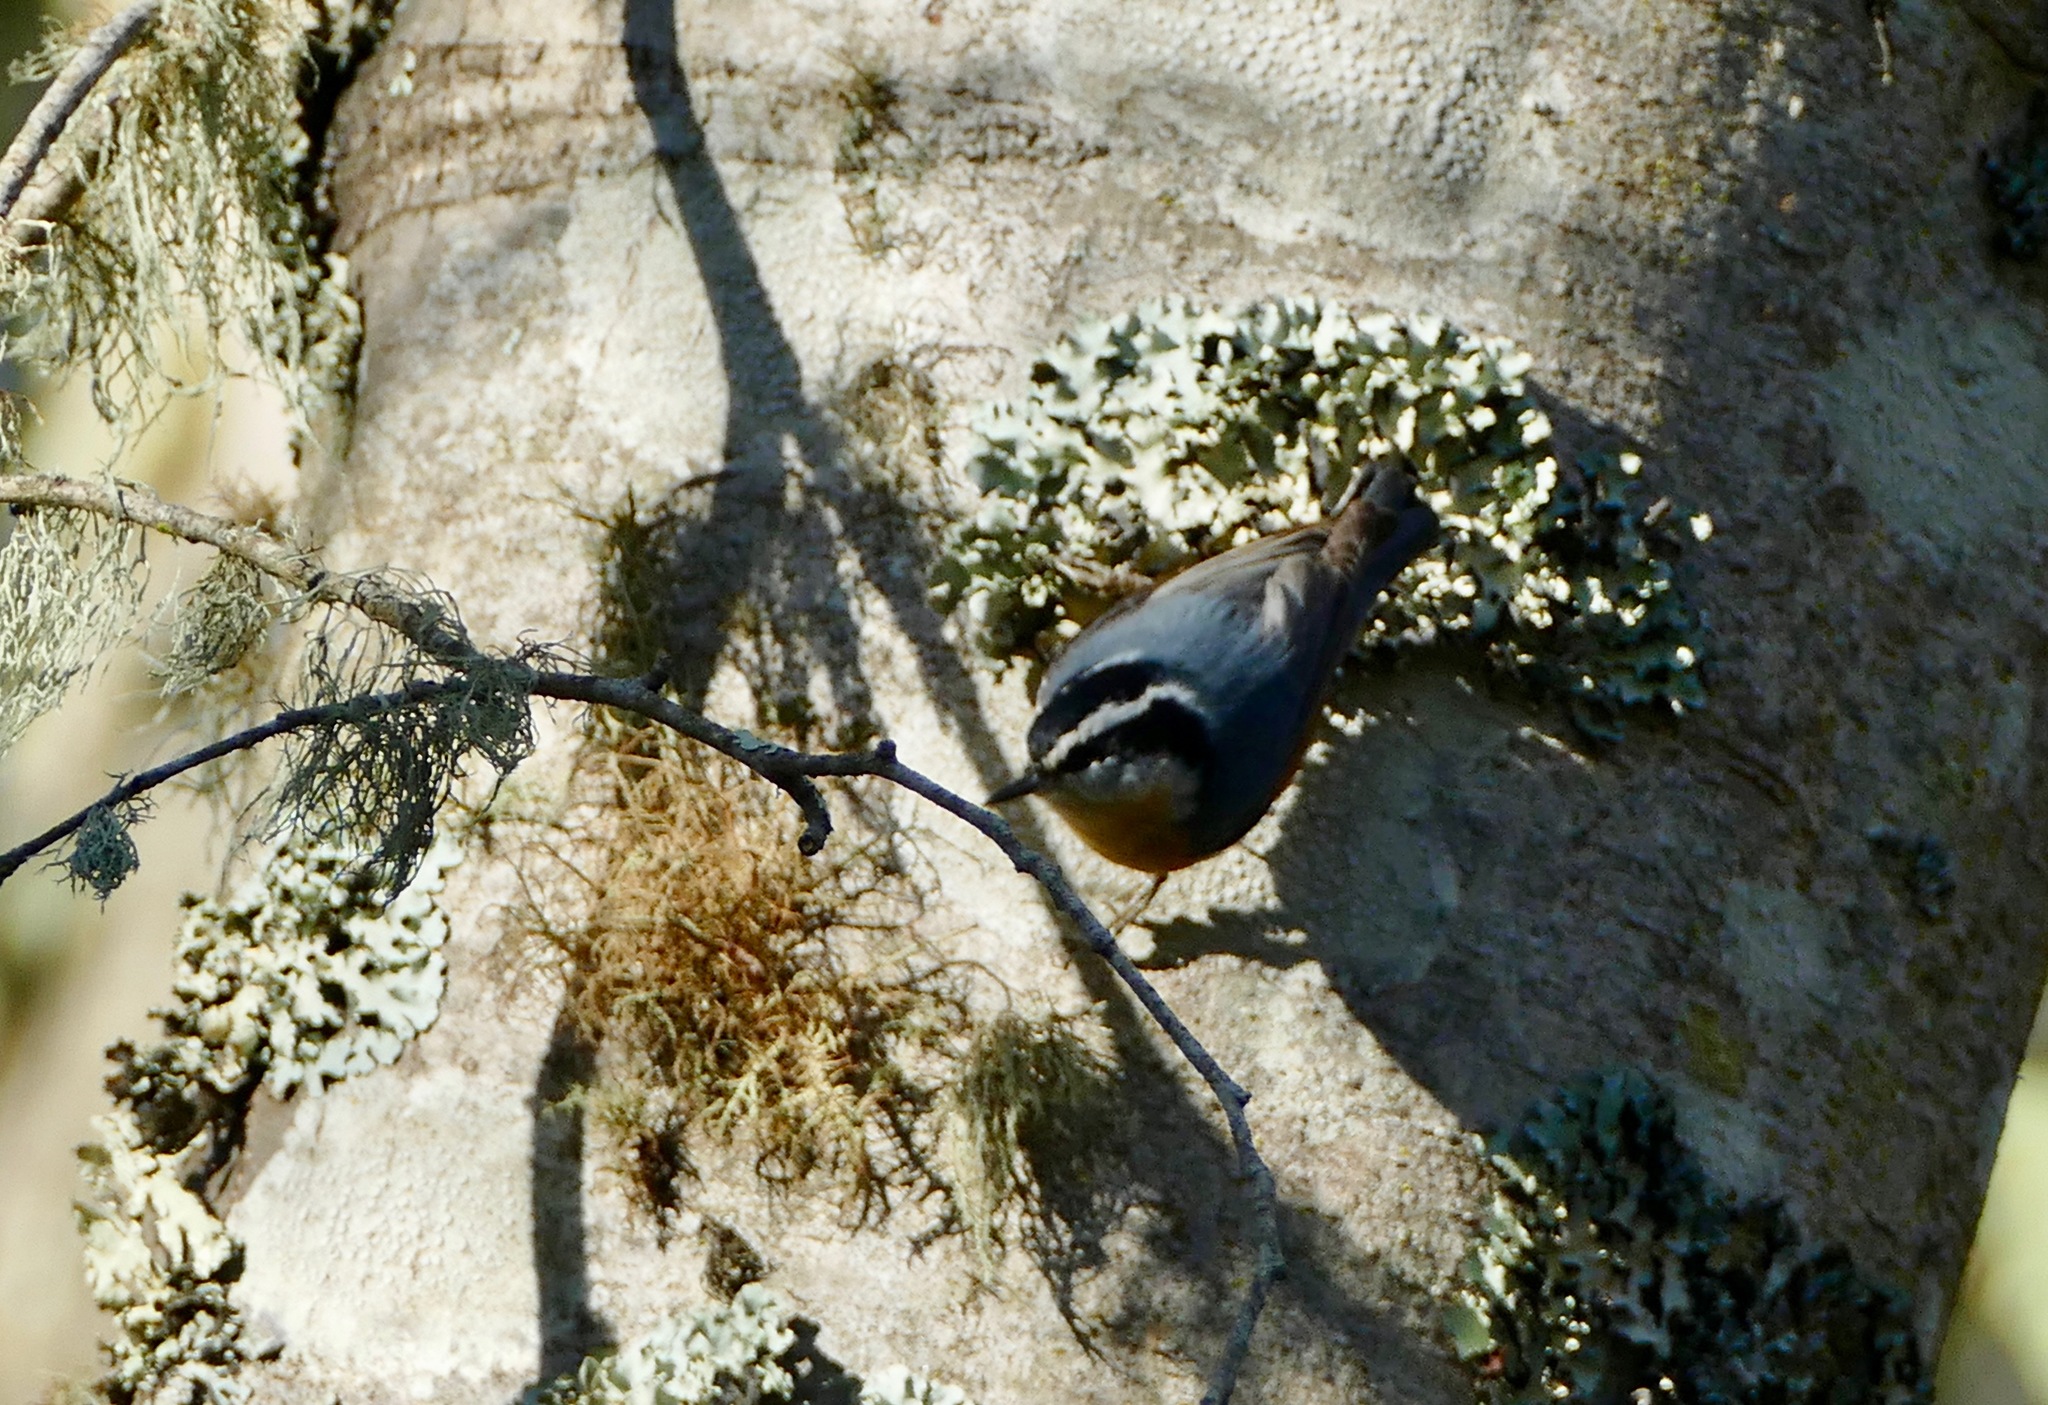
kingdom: Animalia
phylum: Chordata
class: Aves
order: Passeriformes
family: Sittidae
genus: Sitta
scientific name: Sitta canadensis
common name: Red-breasted nuthatch
